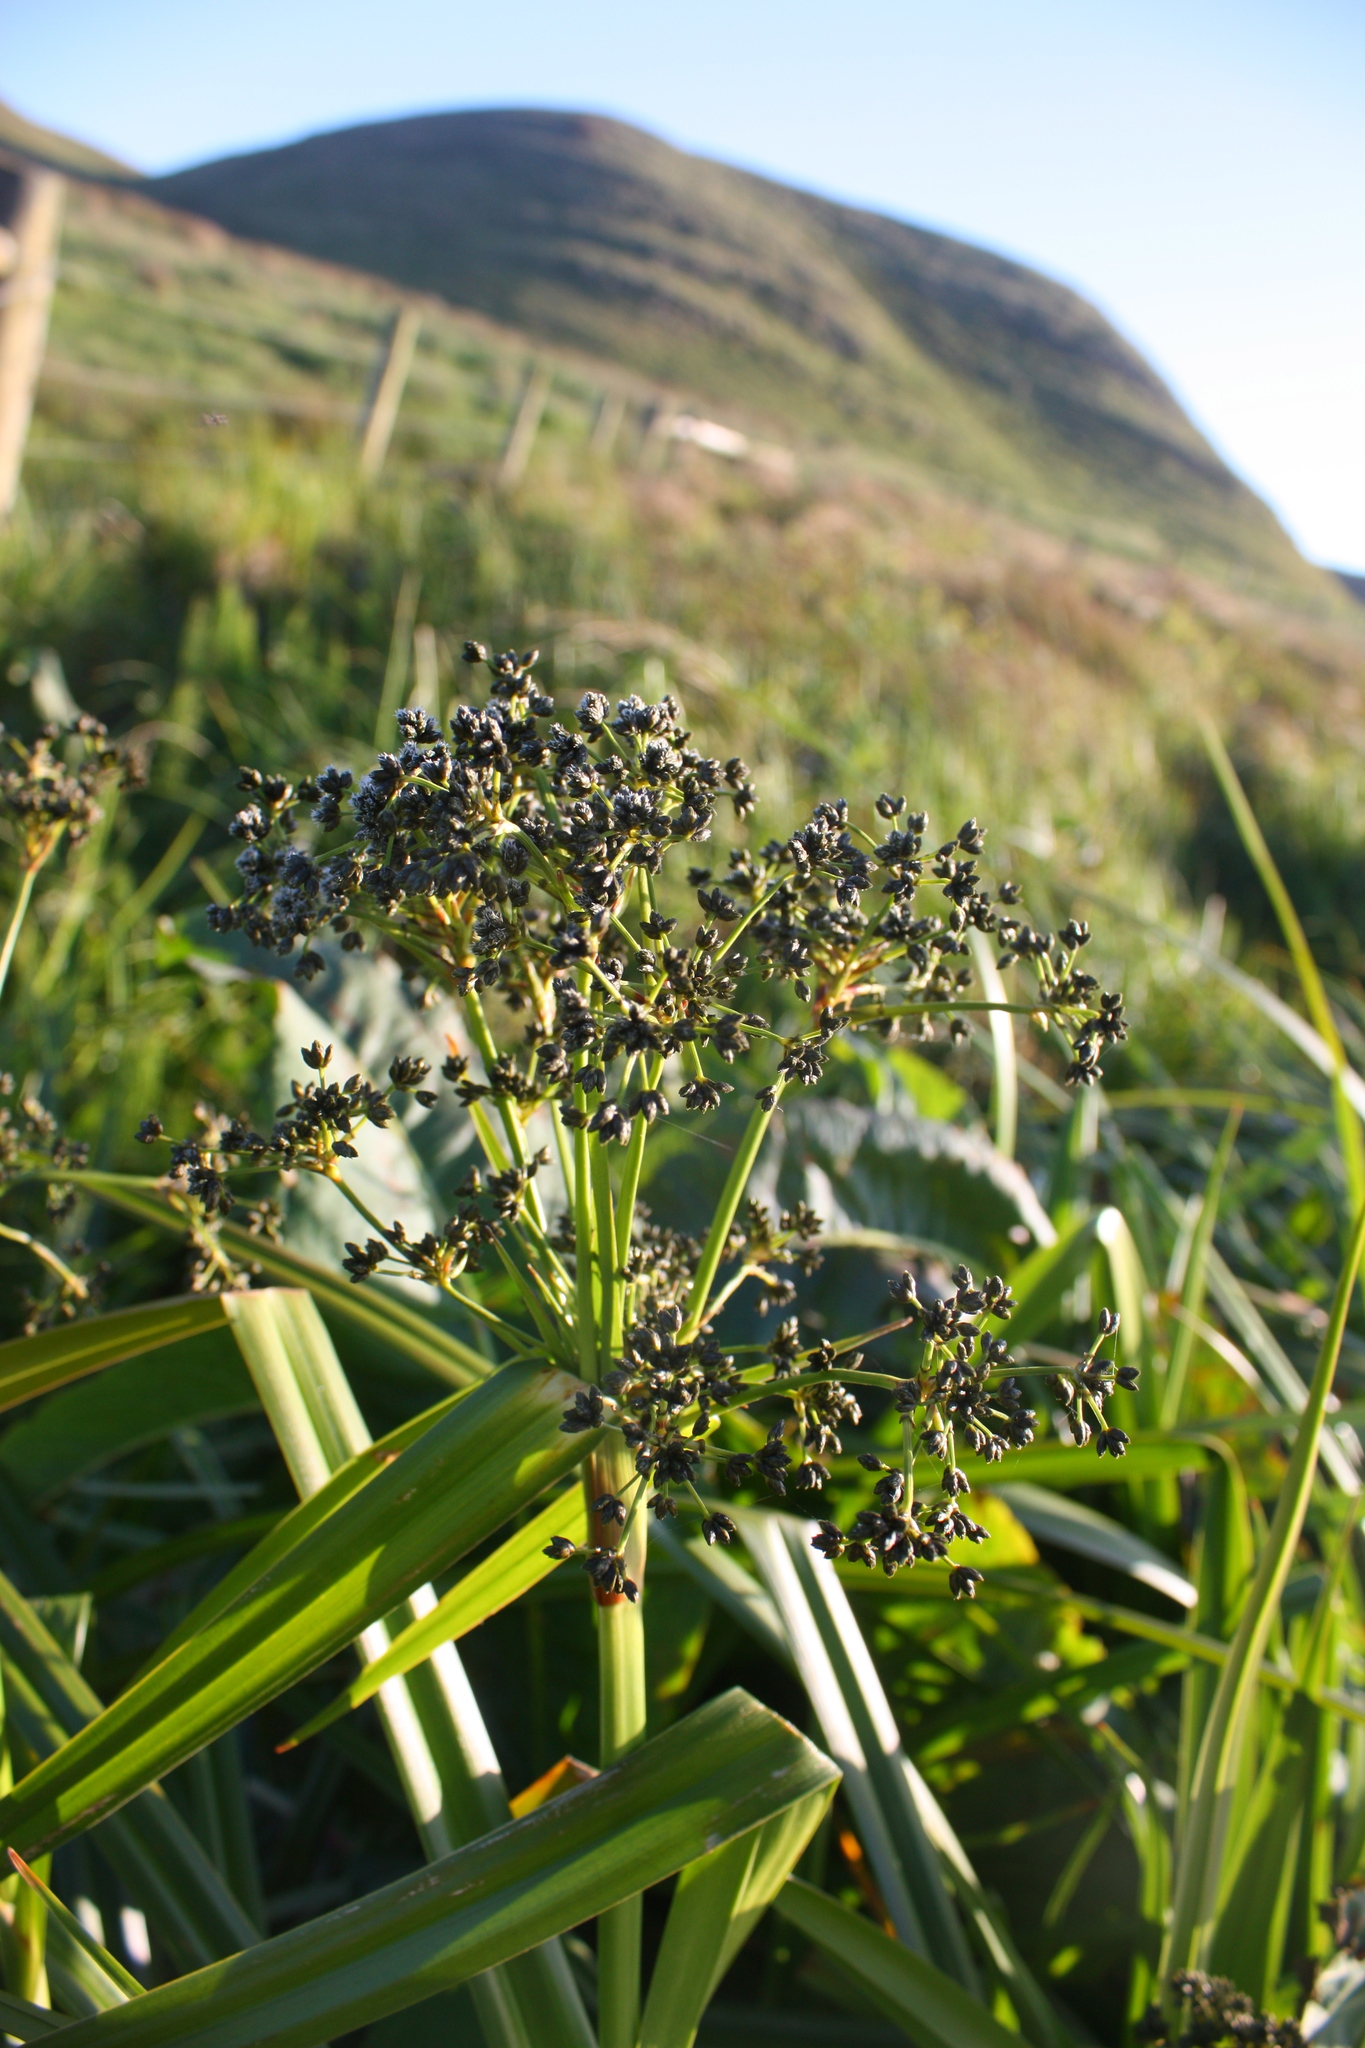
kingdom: Plantae
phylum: Tracheophyta
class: Liliopsida
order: Poales
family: Cyperaceae
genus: Scirpus
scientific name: Scirpus microcarpus
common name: Panicled bulrush
